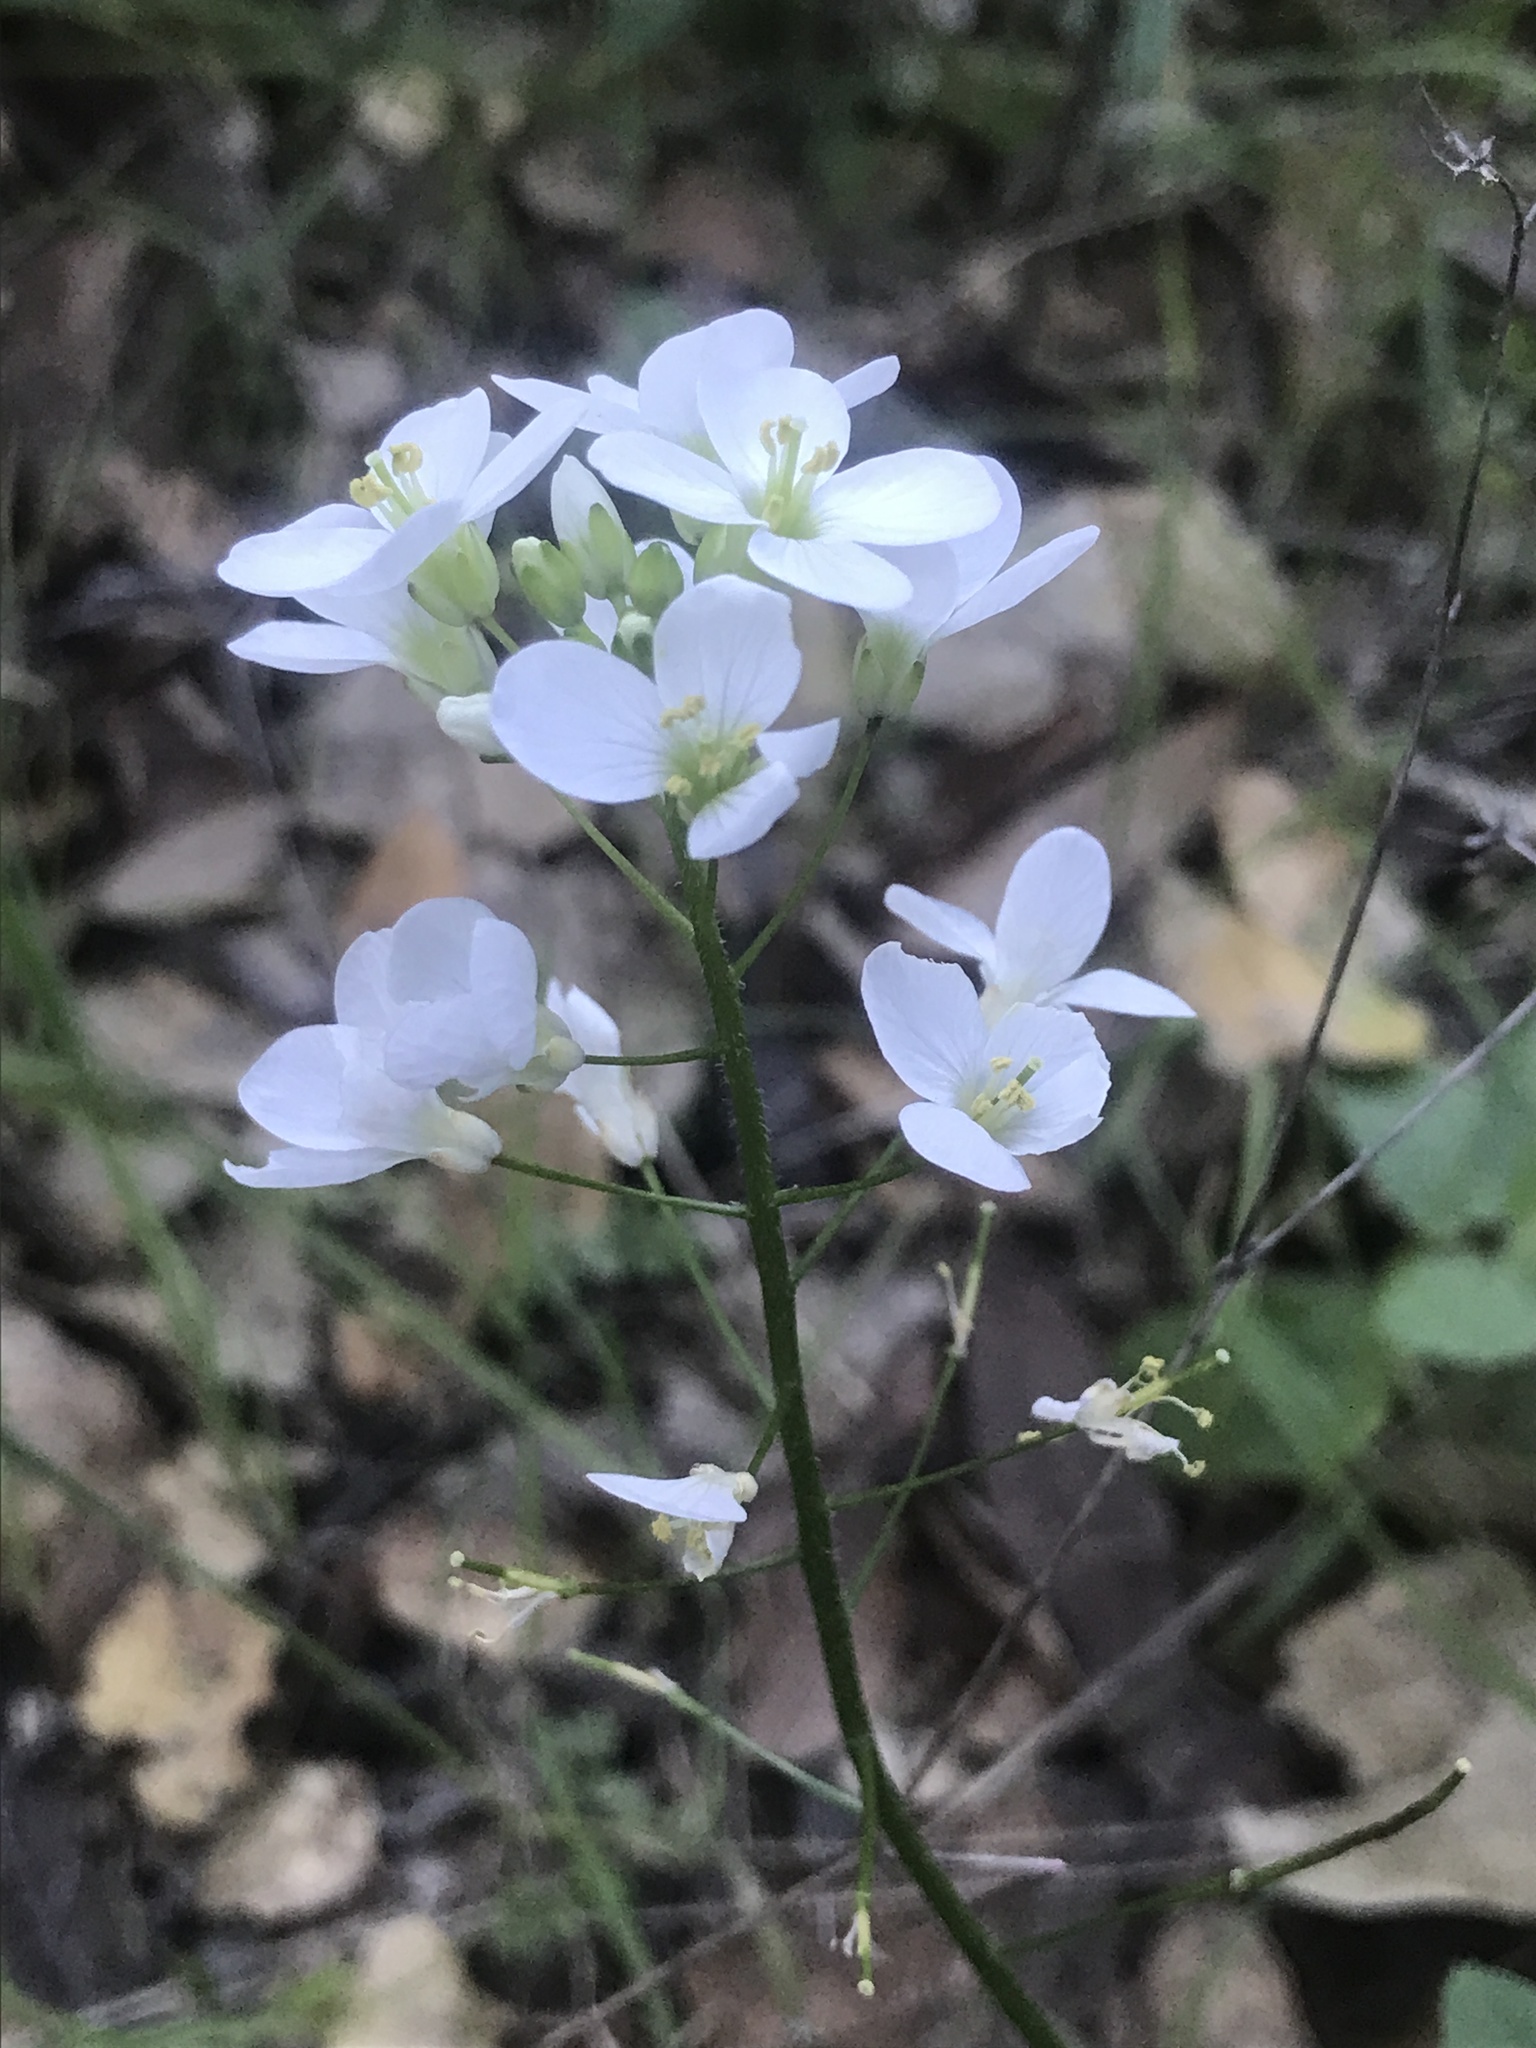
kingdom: Plantae
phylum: Tracheophyta
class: Magnoliopsida
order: Brassicales
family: Brassicaceae
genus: Cardamine
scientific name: Cardamine californica
